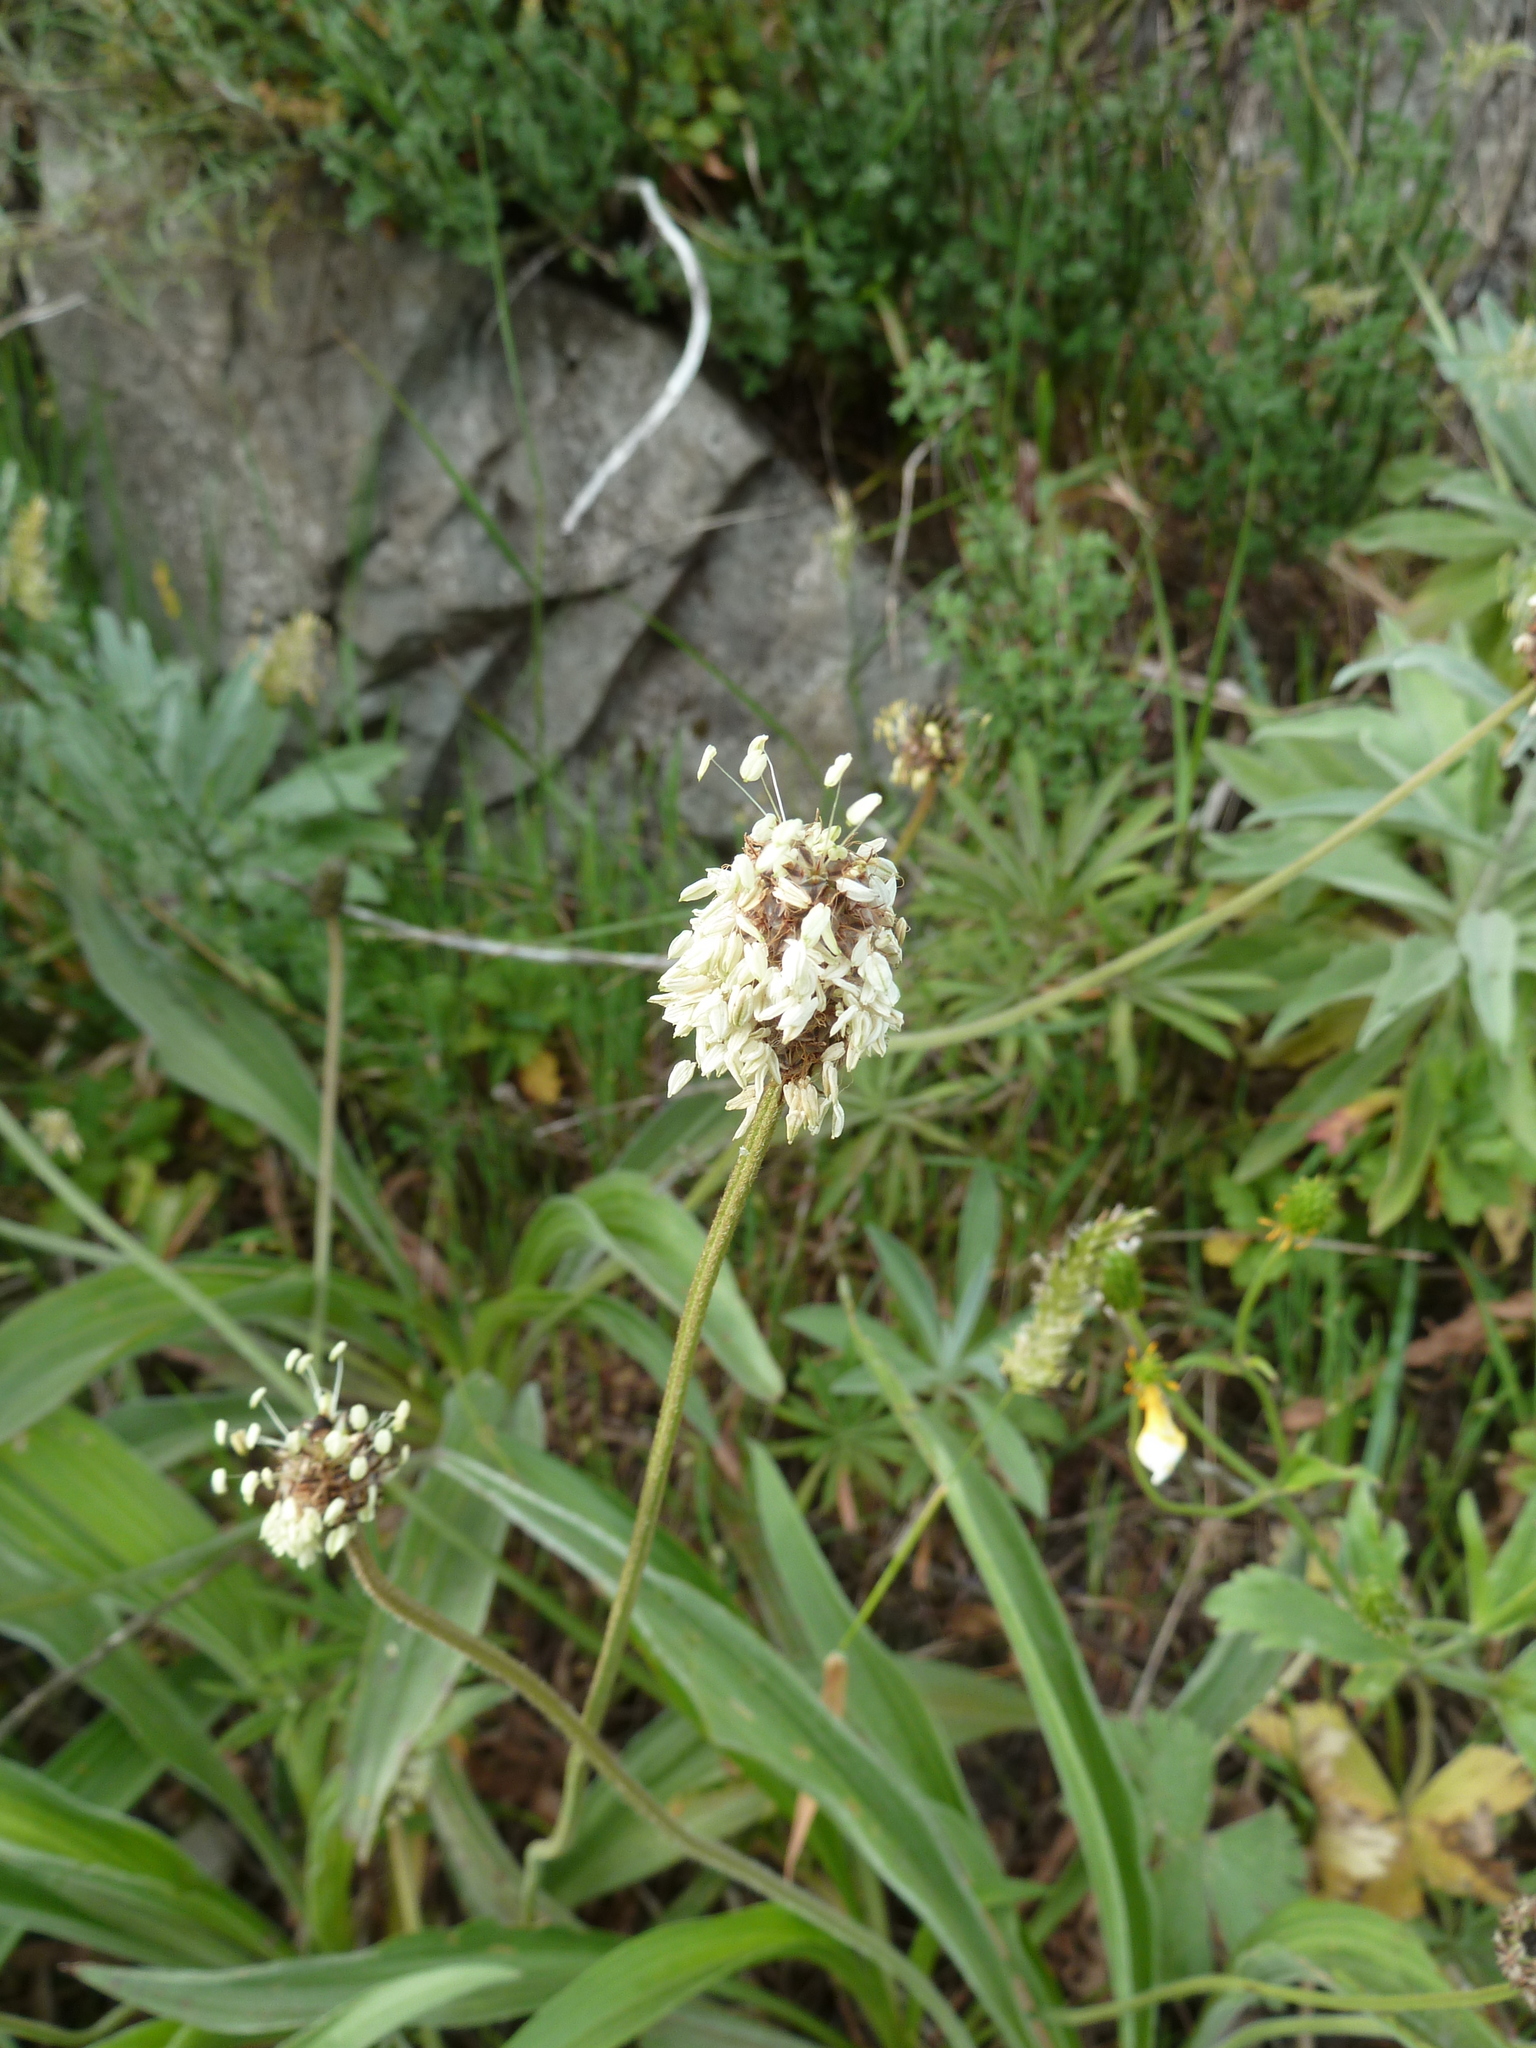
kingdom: Plantae
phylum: Tracheophyta
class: Magnoliopsida
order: Lamiales
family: Plantaginaceae
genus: Plantago
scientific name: Plantago malato-belizii
